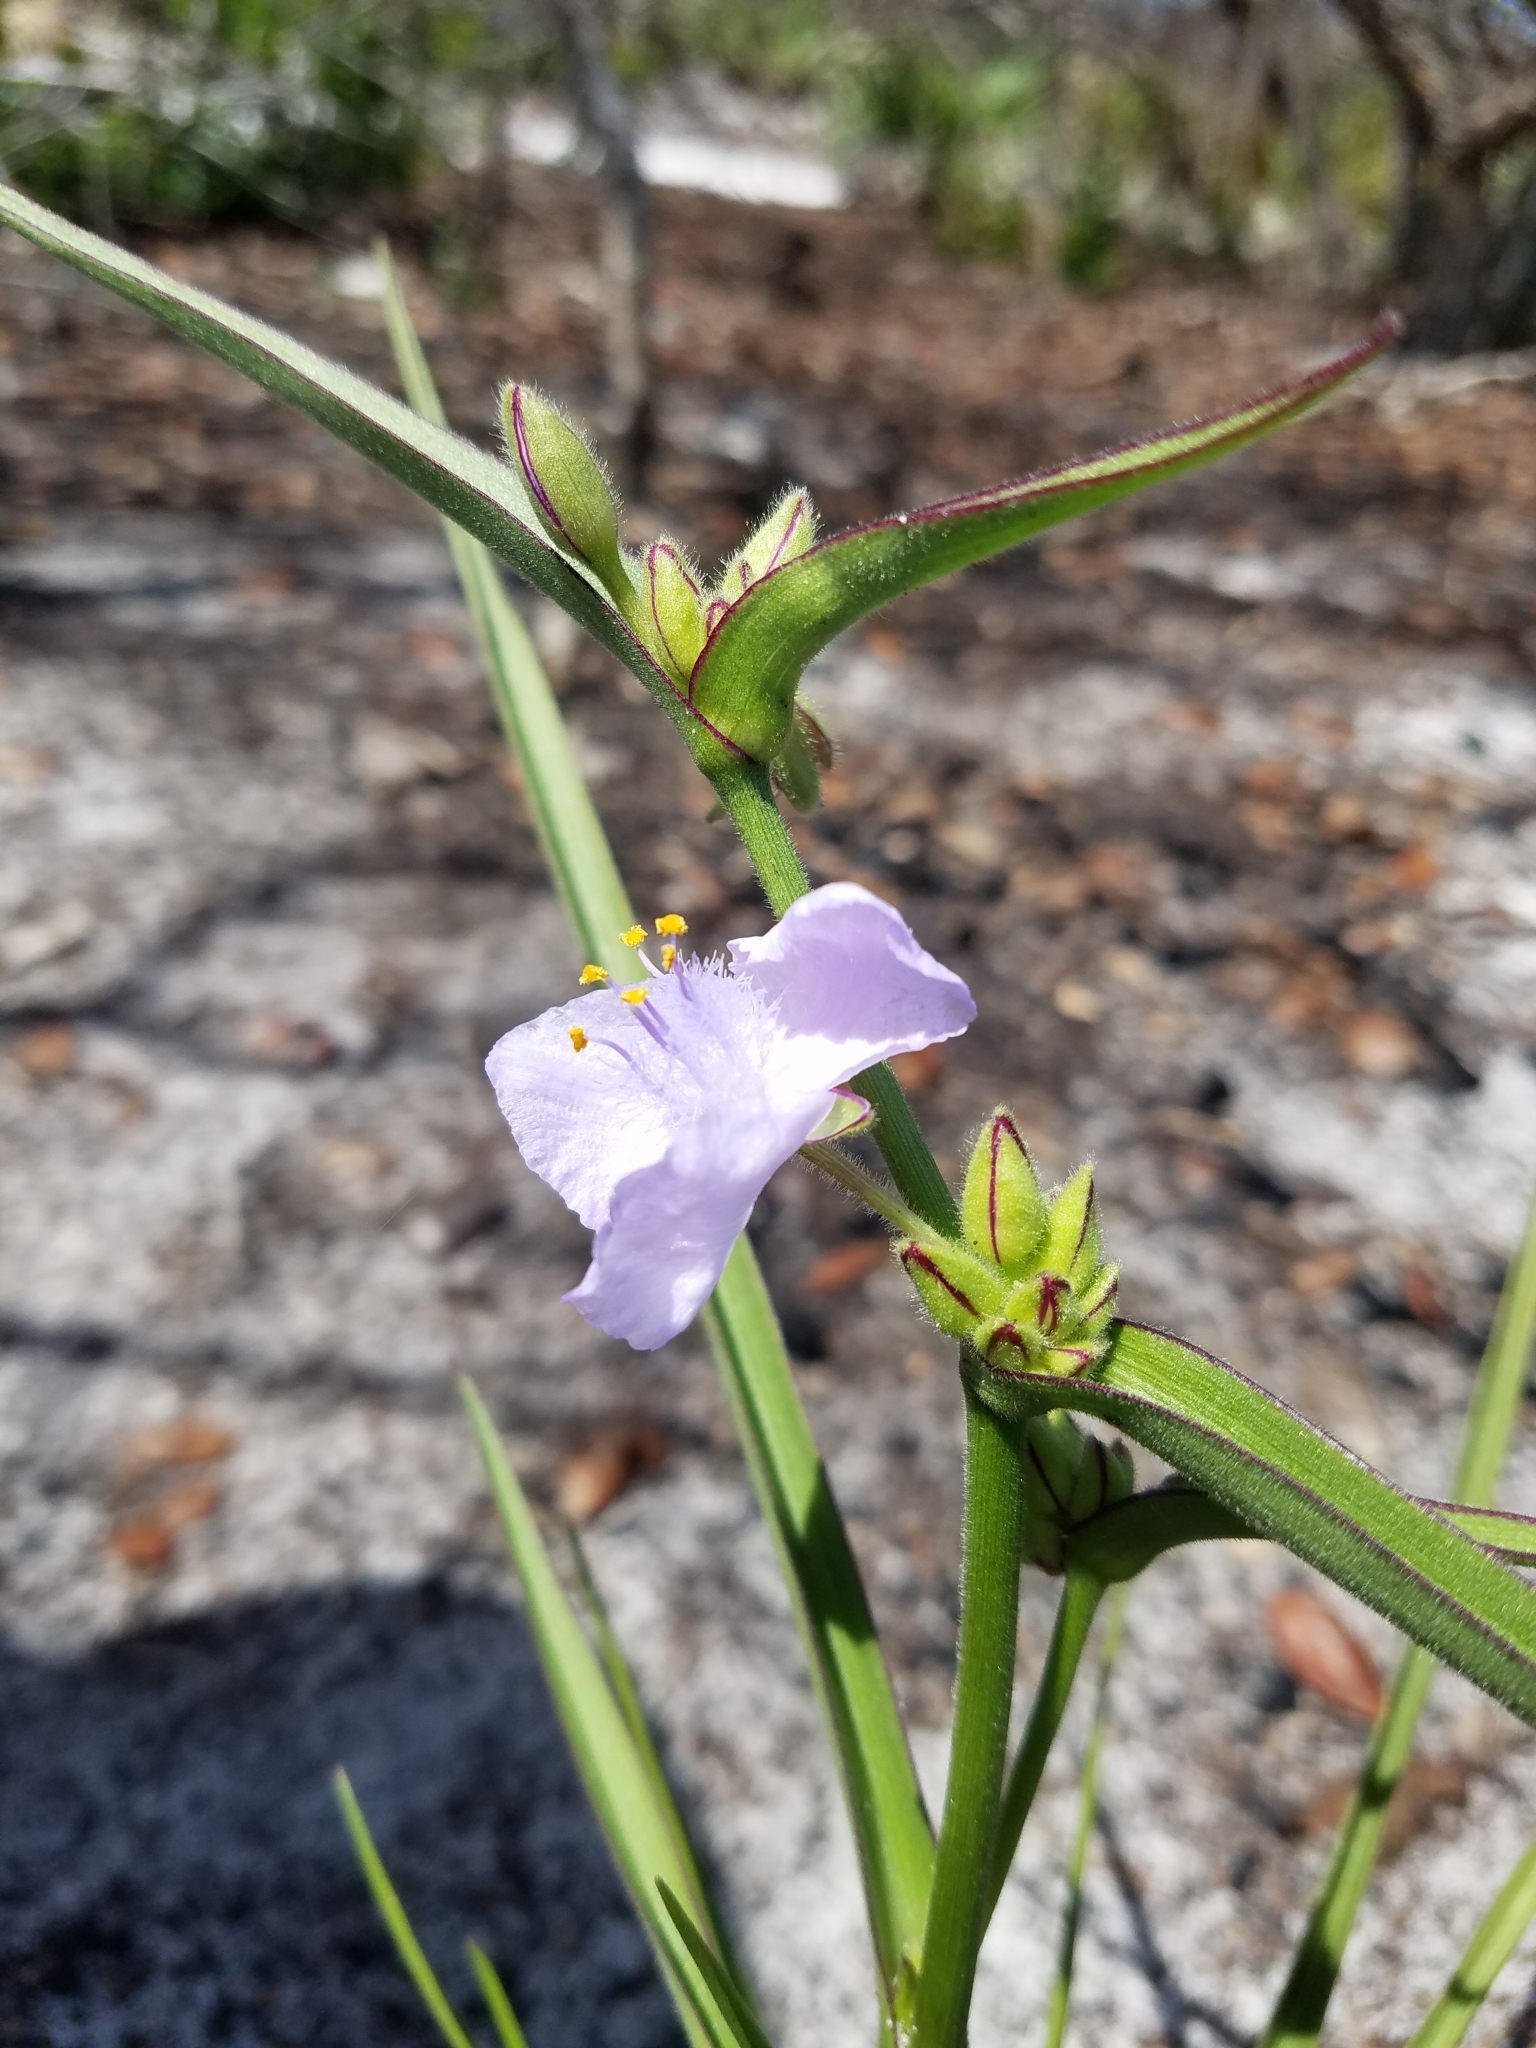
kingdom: Plantae
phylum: Tracheophyta
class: Liliopsida
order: Commelinales
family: Commelinaceae
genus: Tradescantia
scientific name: Tradescantia roseolens
